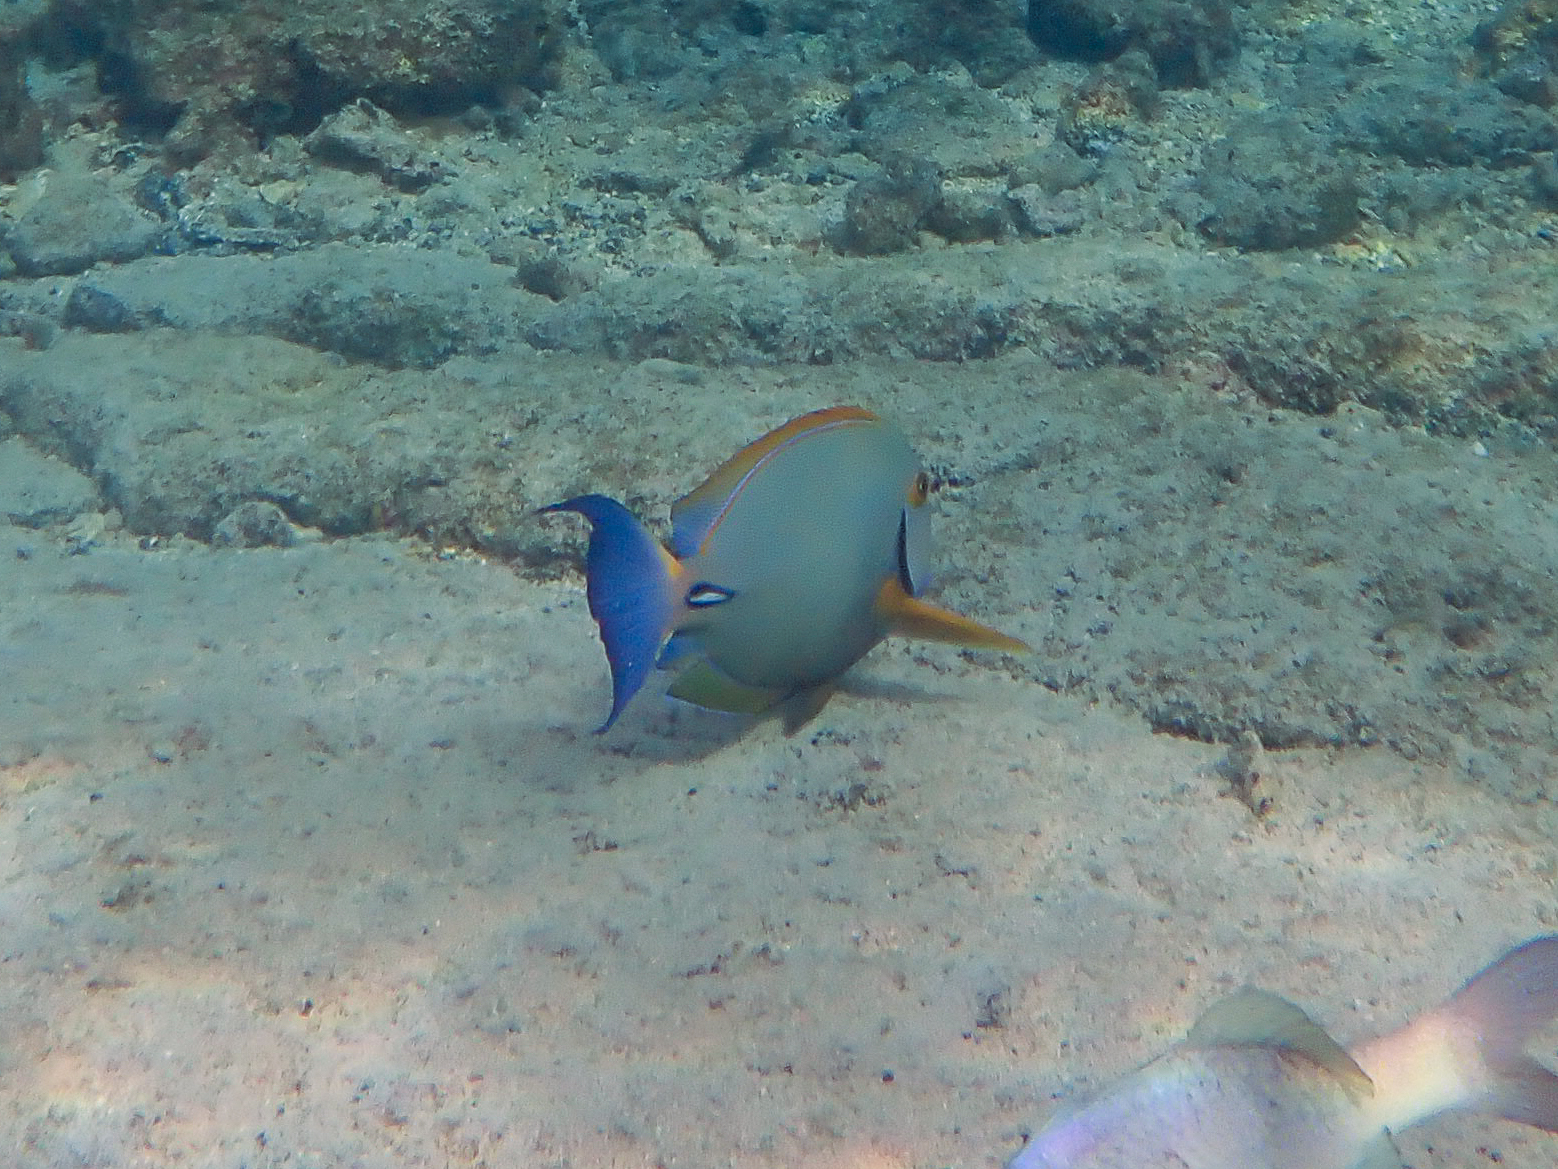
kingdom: Animalia
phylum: Chordata
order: Perciformes
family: Acanthuridae
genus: Acanthurus
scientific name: Acanthurus dussumieri
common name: Dussumier's surgeonfish
